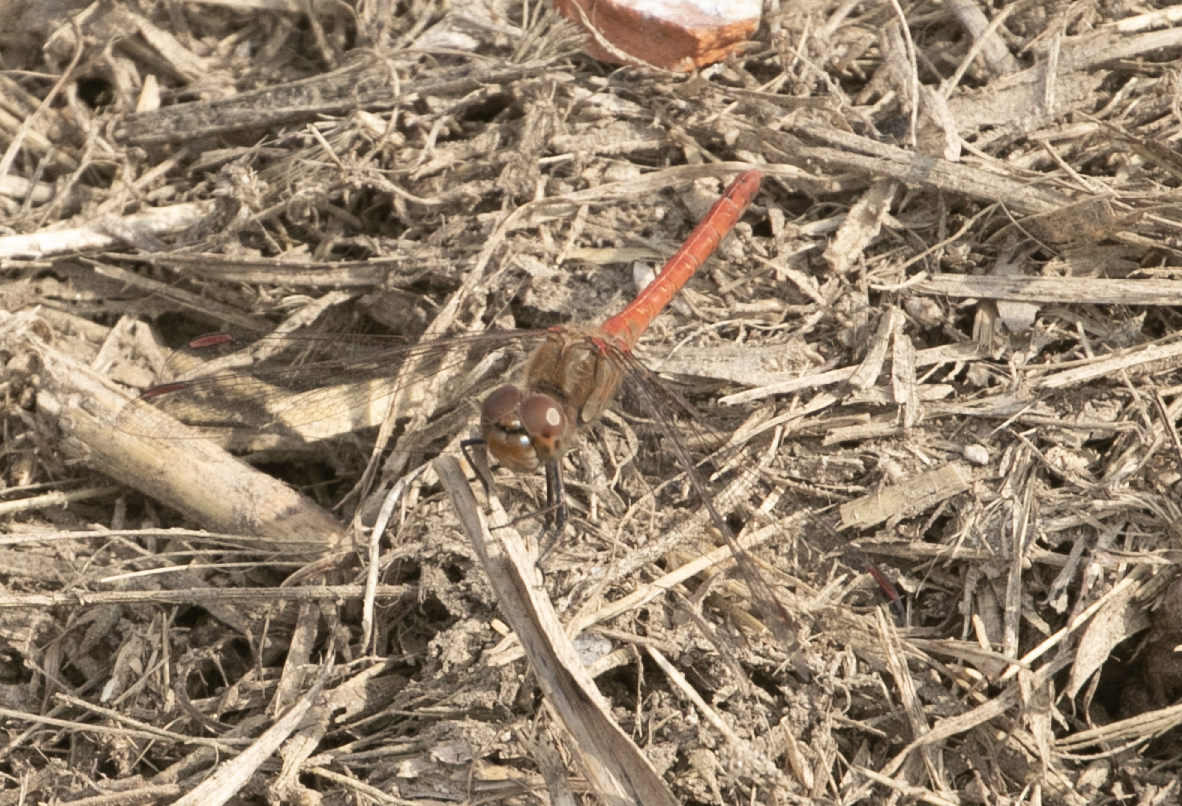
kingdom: Animalia
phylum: Arthropoda
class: Insecta
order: Odonata
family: Libellulidae
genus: Sympetrum
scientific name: Sympetrum striolatum
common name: Common darter
